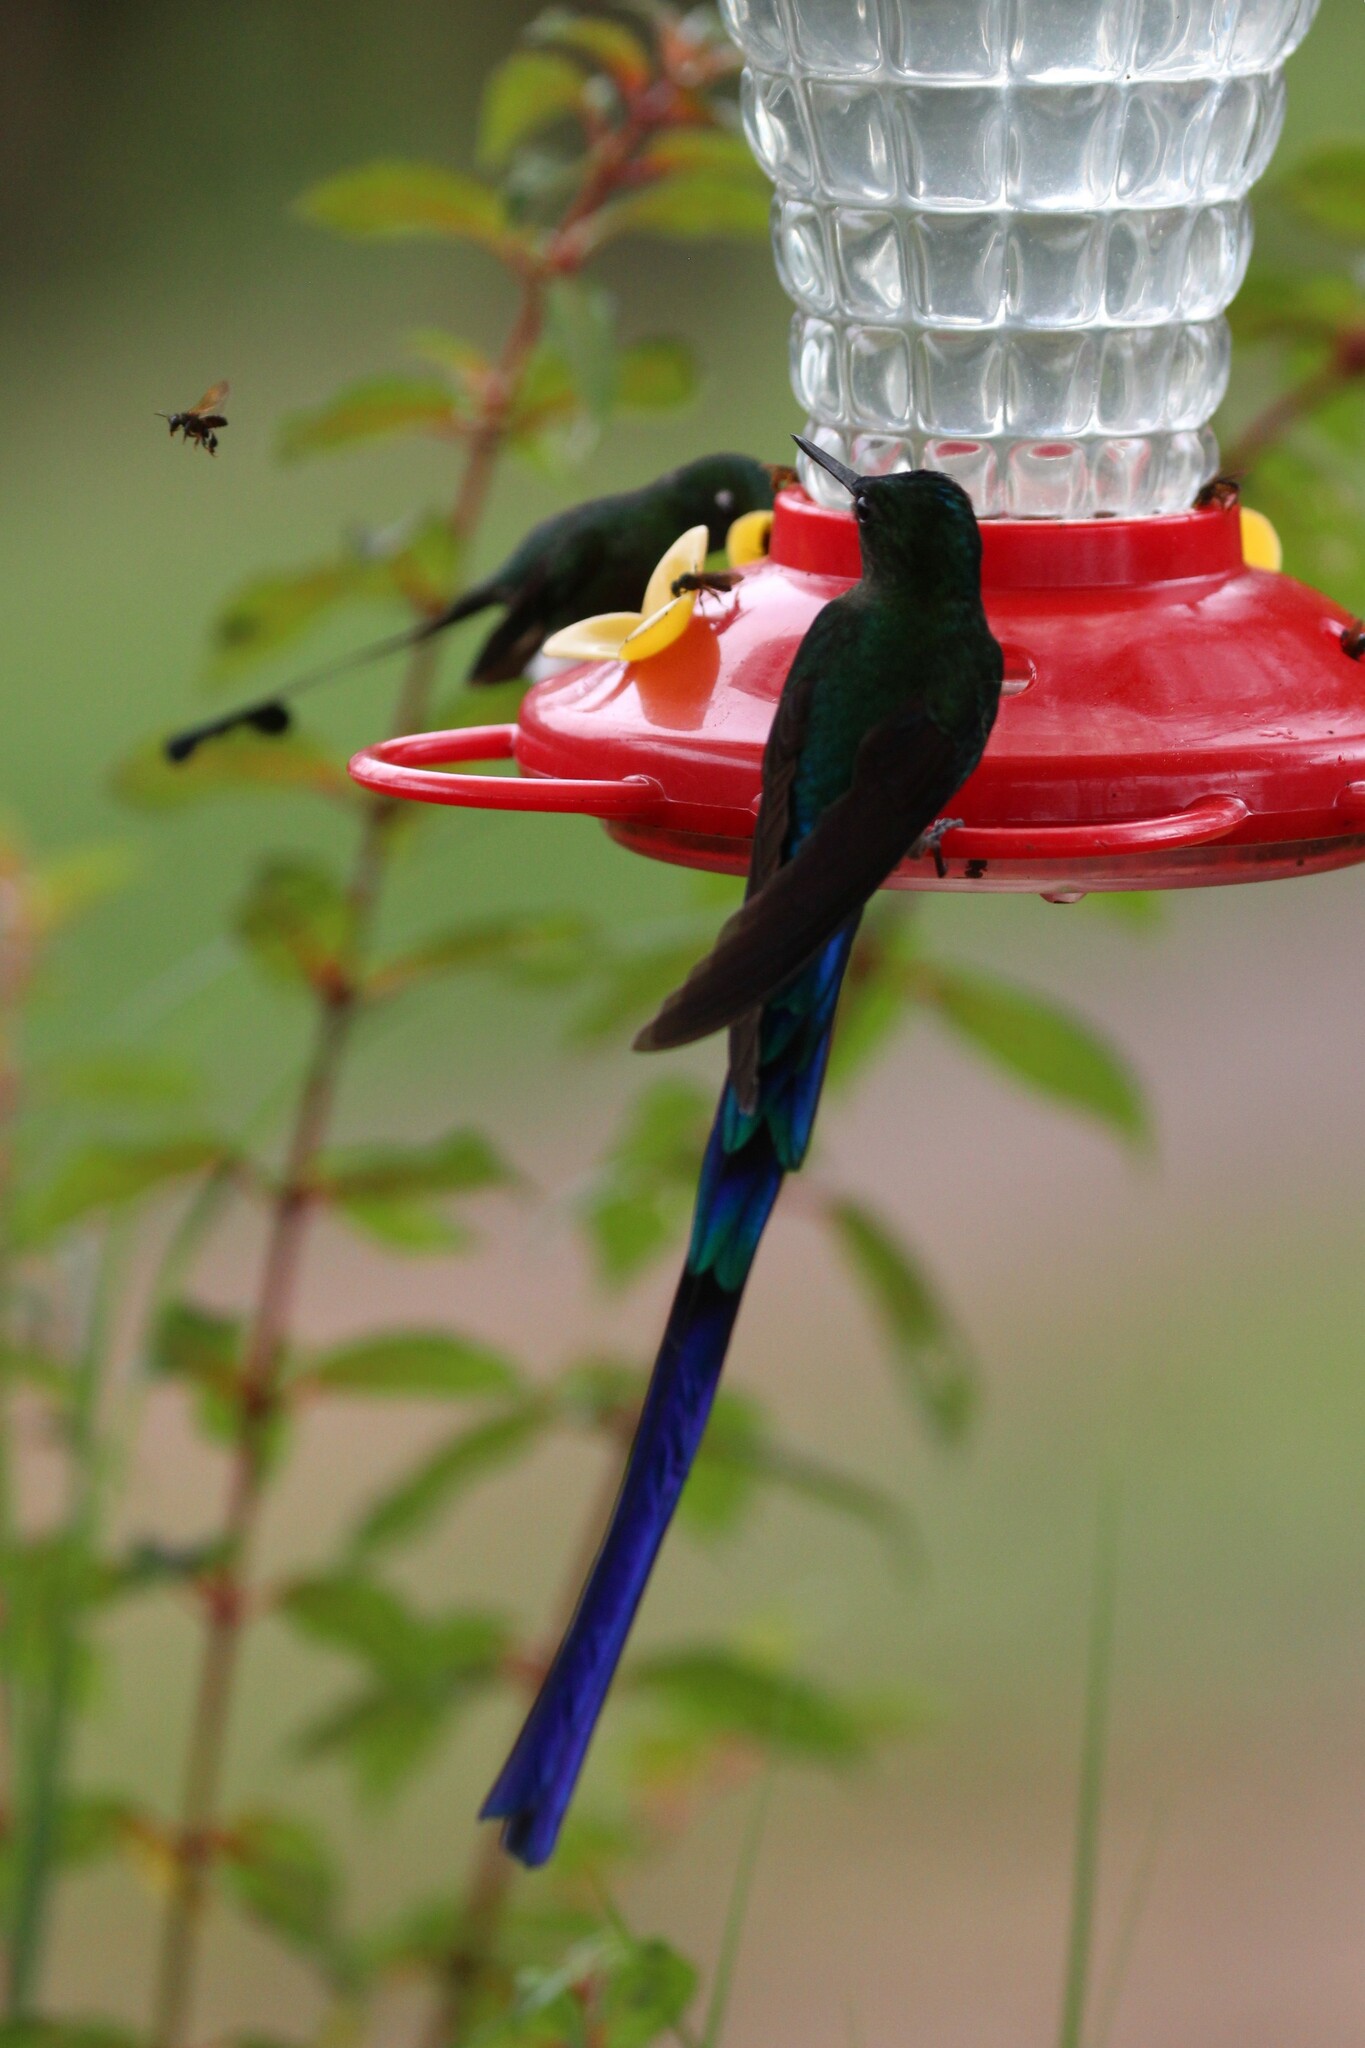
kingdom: Animalia
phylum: Chordata
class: Aves
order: Apodiformes
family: Trochilidae
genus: Aglaiocercus
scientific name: Aglaiocercus coelestis
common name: Violet-tailed sylph
